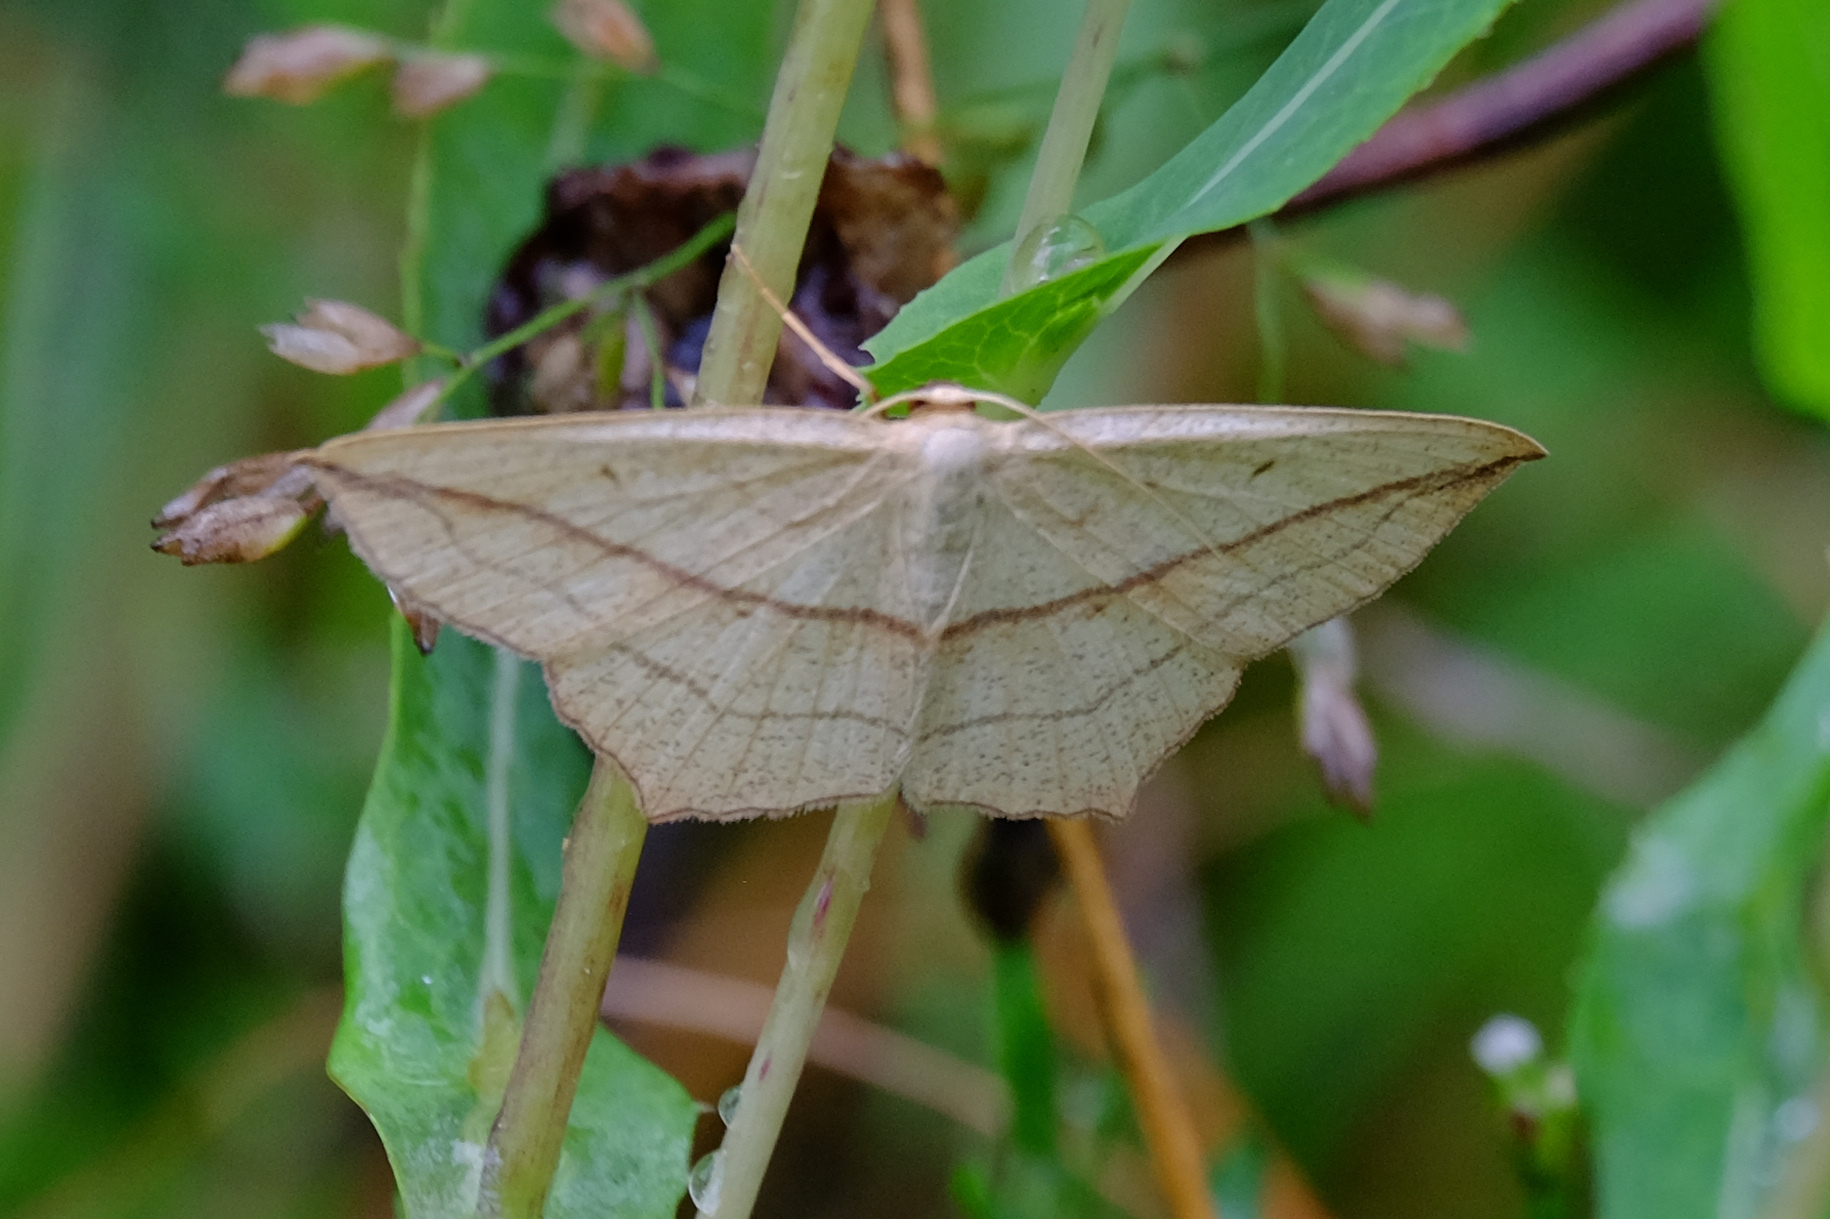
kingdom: Animalia
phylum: Arthropoda
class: Insecta
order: Lepidoptera
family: Geometridae
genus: Timandra
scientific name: Timandra comae
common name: Blood-vein
